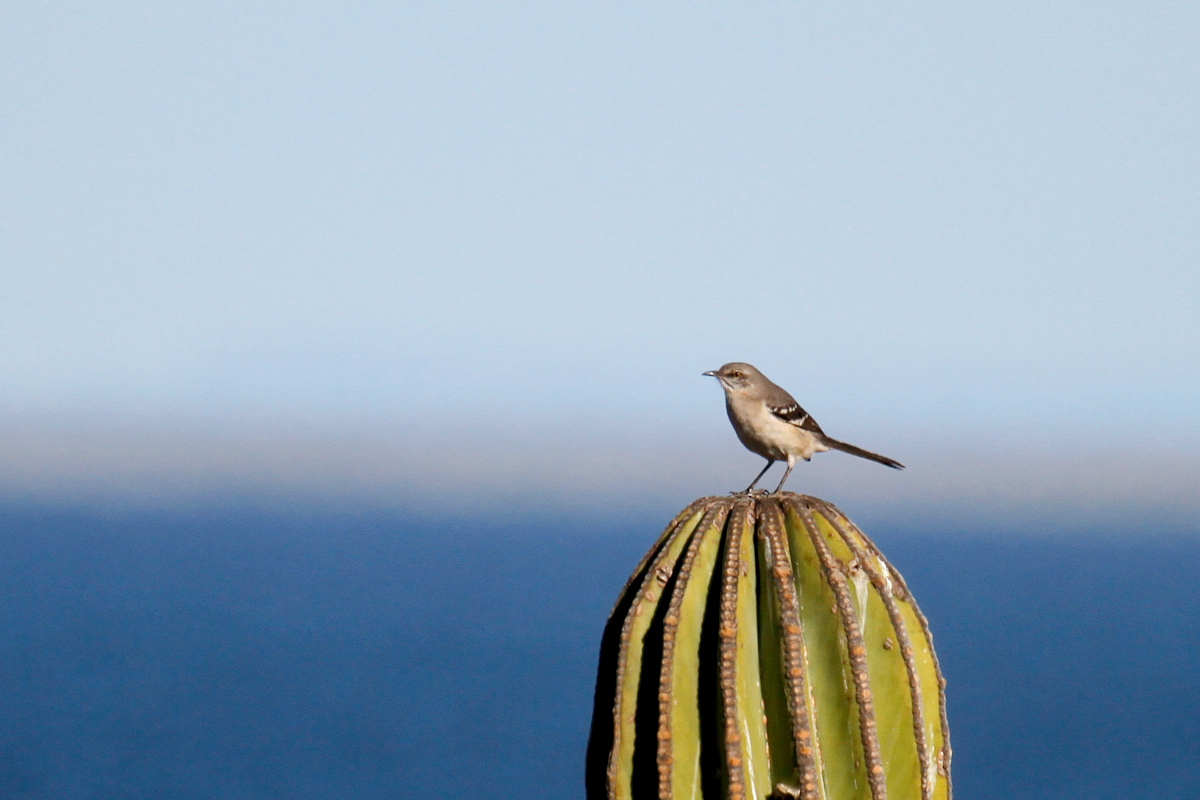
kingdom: Animalia
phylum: Chordata
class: Aves
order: Passeriformes
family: Mimidae
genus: Mimus
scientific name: Mimus polyglottos
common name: Northern mockingbird
